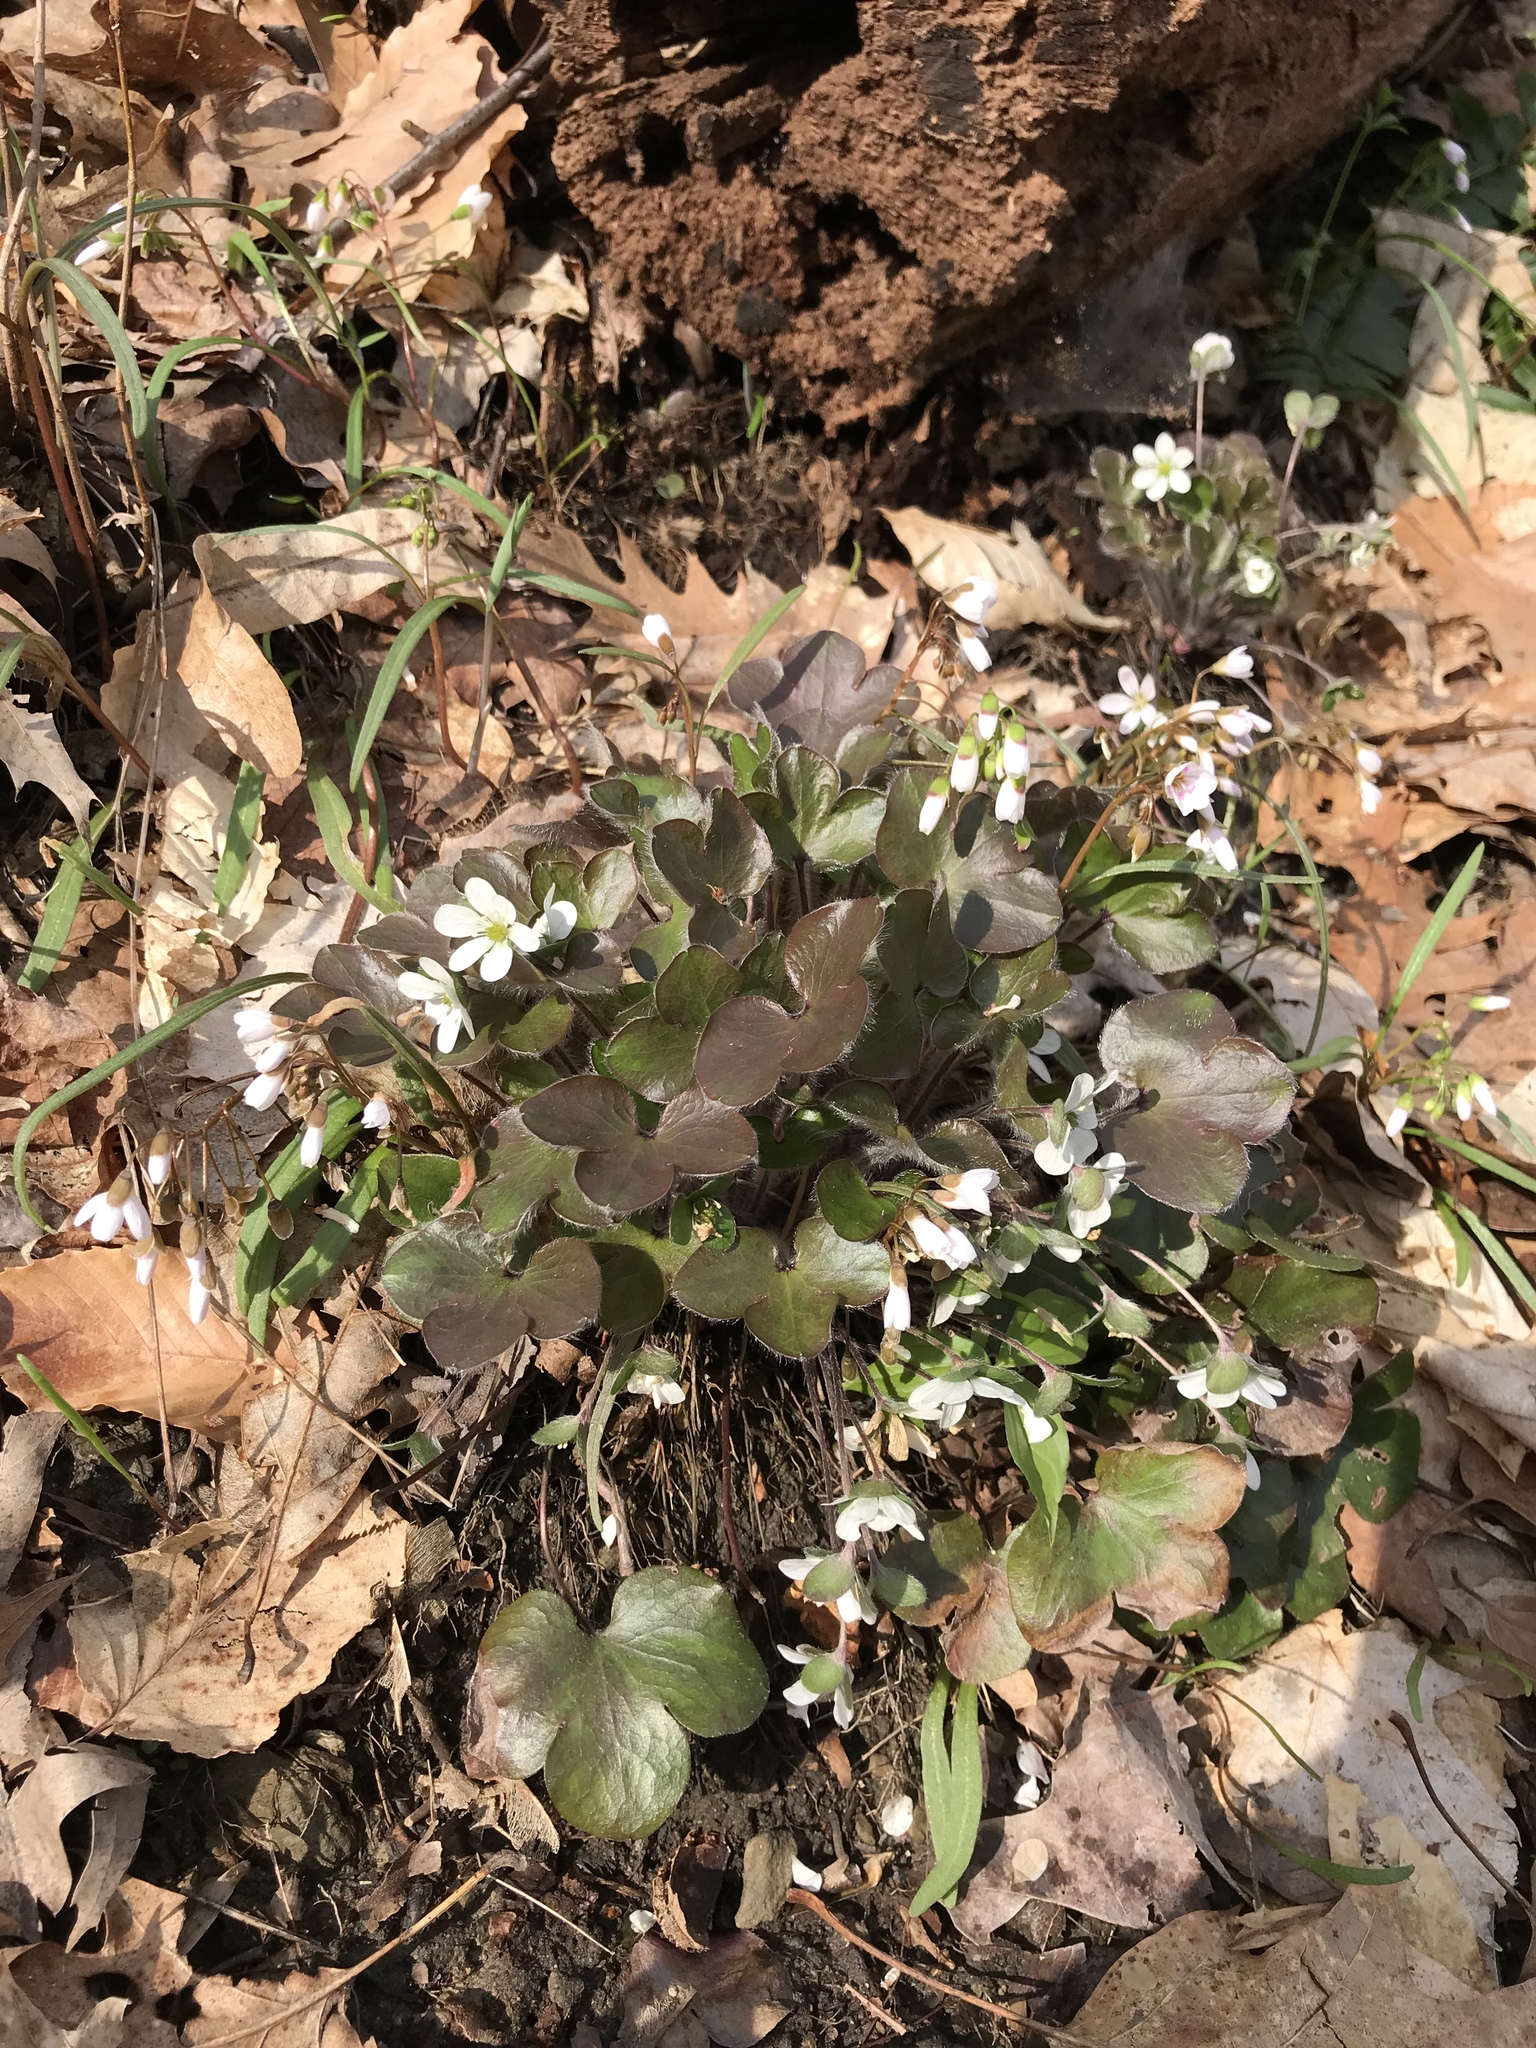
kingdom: Plantae
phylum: Tracheophyta
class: Magnoliopsida
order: Ranunculales
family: Ranunculaceae
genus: Hepatica
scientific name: Hepatica americana
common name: American hepatica
